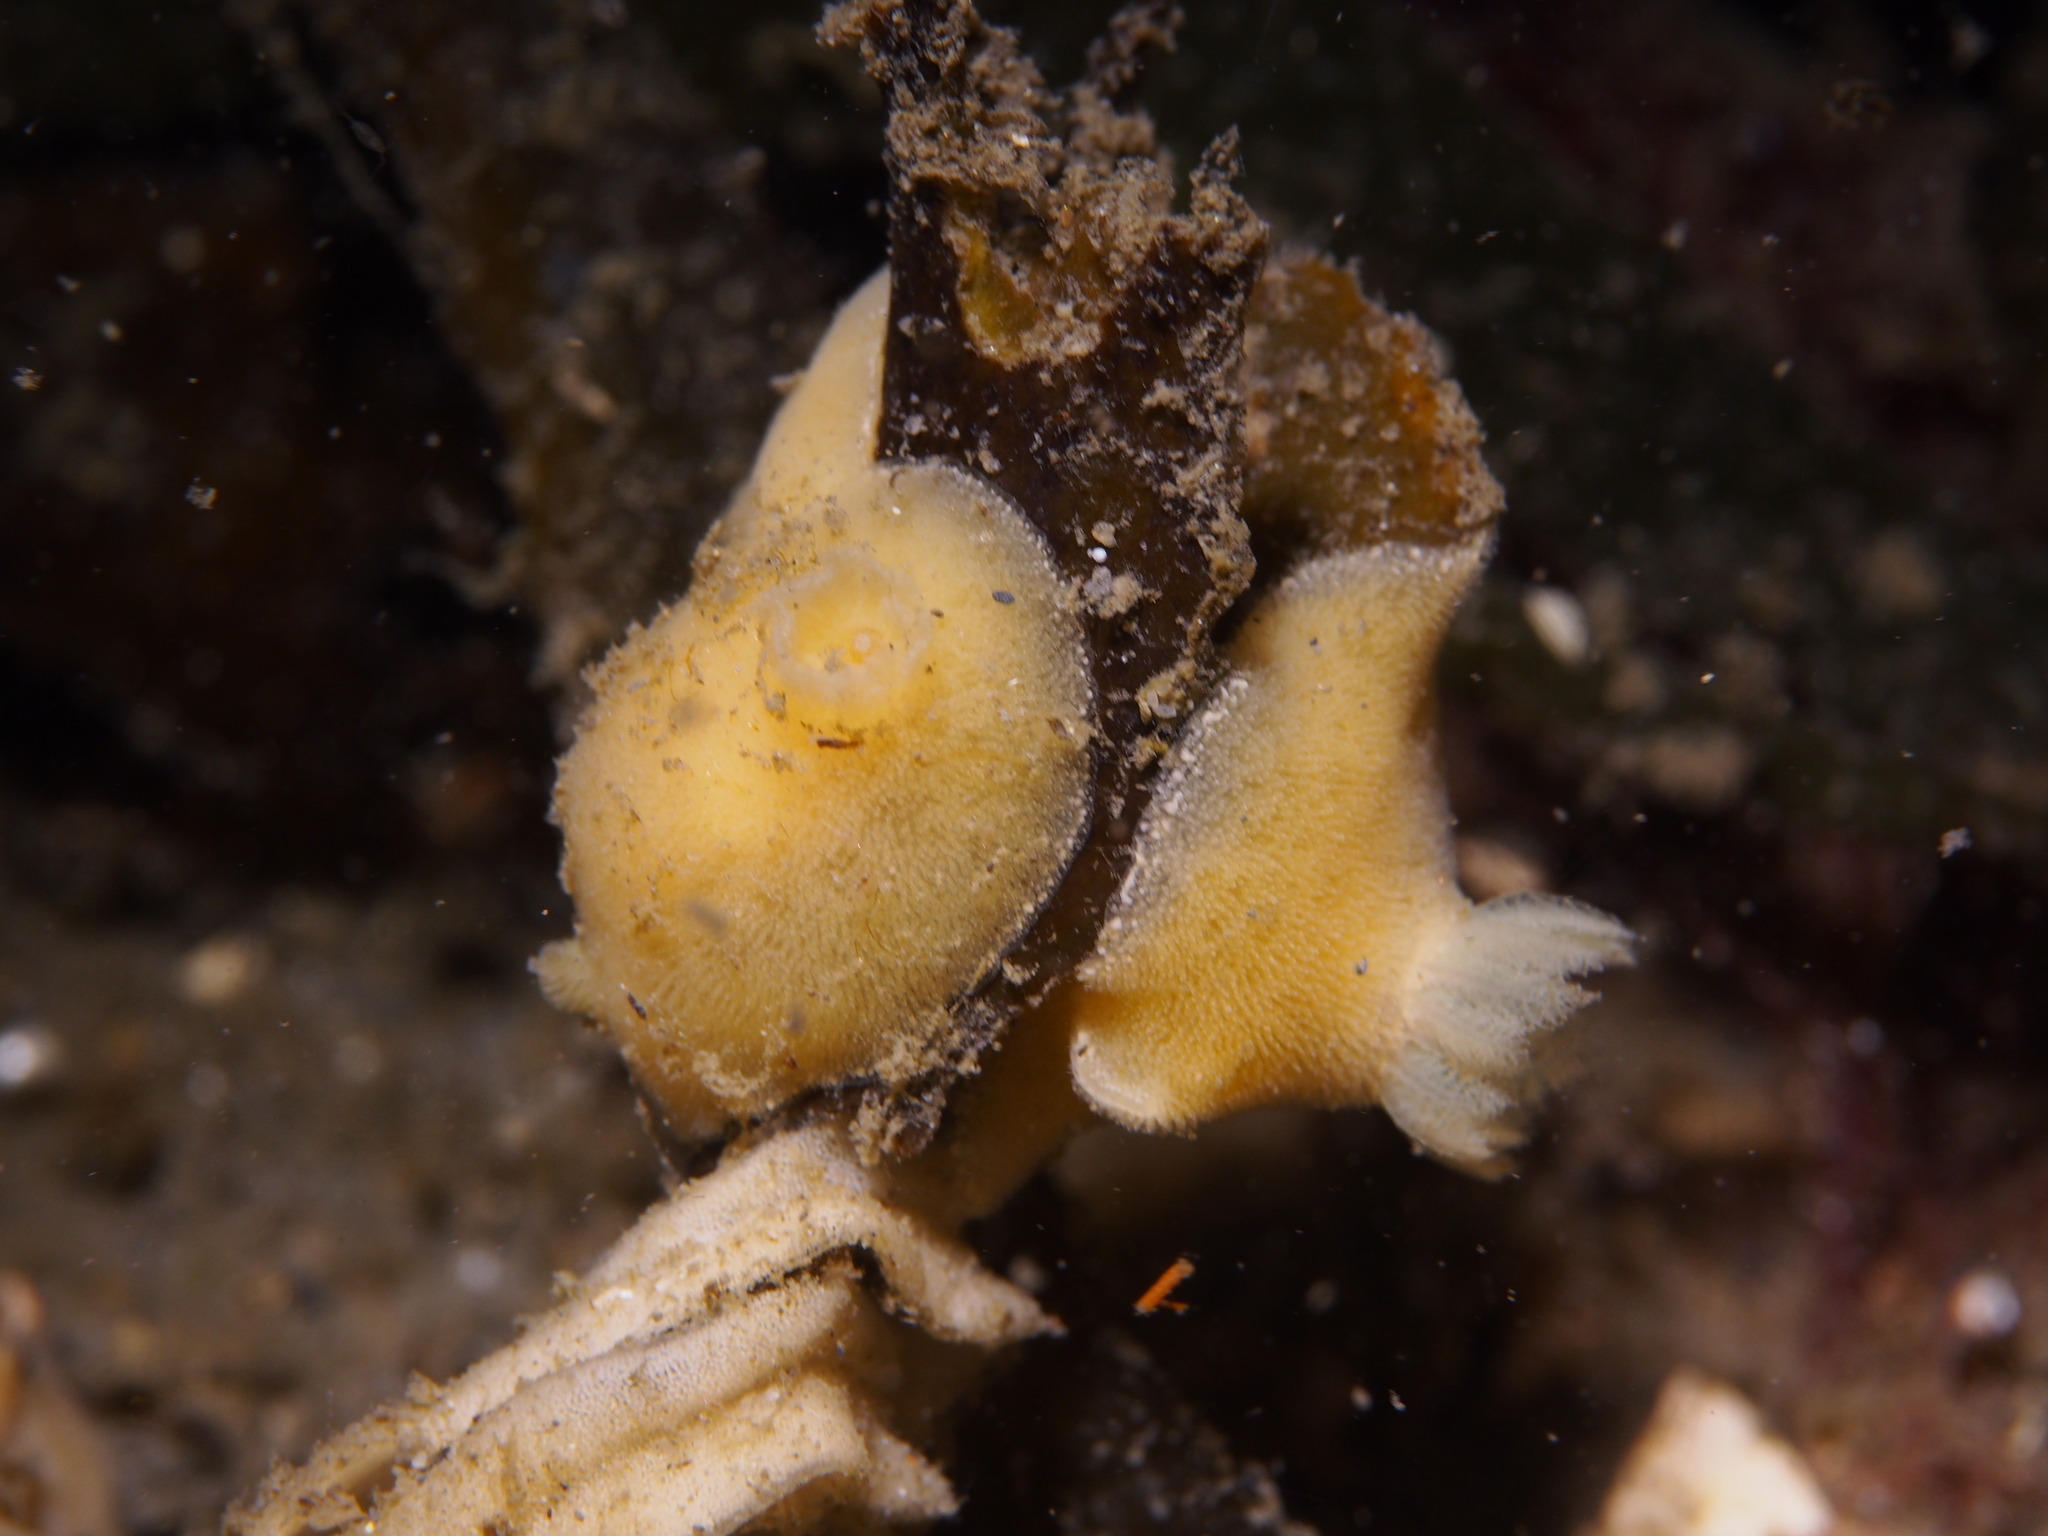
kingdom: Animalia
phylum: Mollusca
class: Gastropoda
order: Nudibranchia
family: Discodorididae
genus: Jorunna
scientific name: Jorunna tomentosa
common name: Grey sea slug
